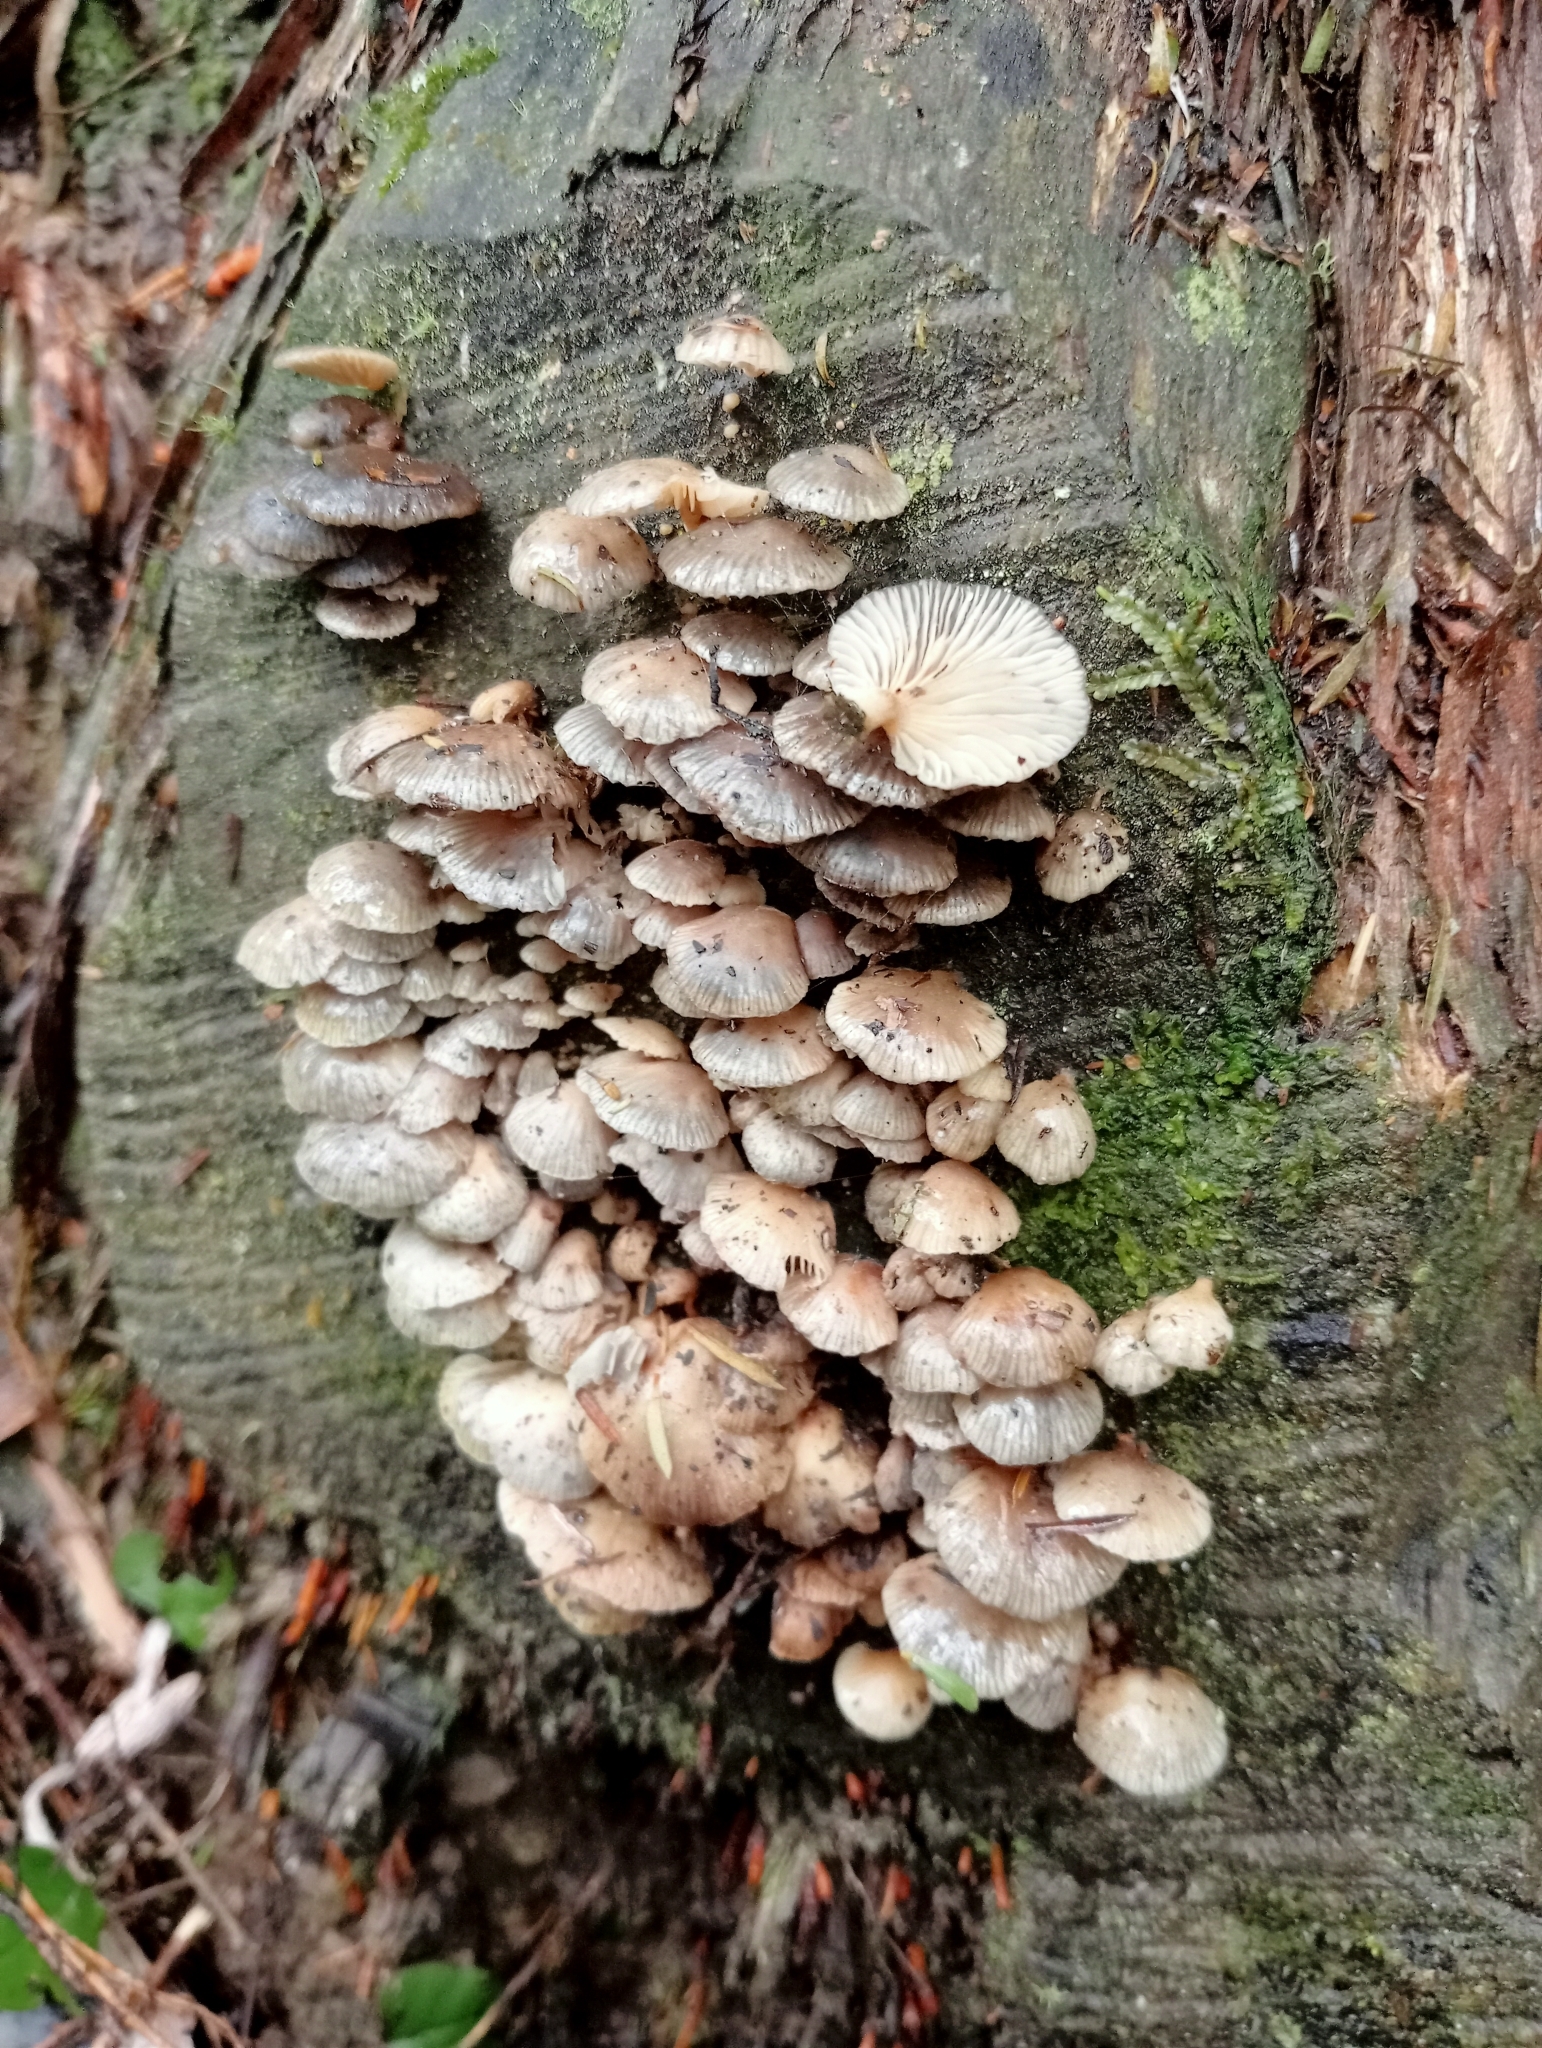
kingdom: Fungi
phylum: Basidiomycota
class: Agaricomycetes
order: Agaricales
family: Mycenaceae
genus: Panellus
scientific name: Panellus longinquus
